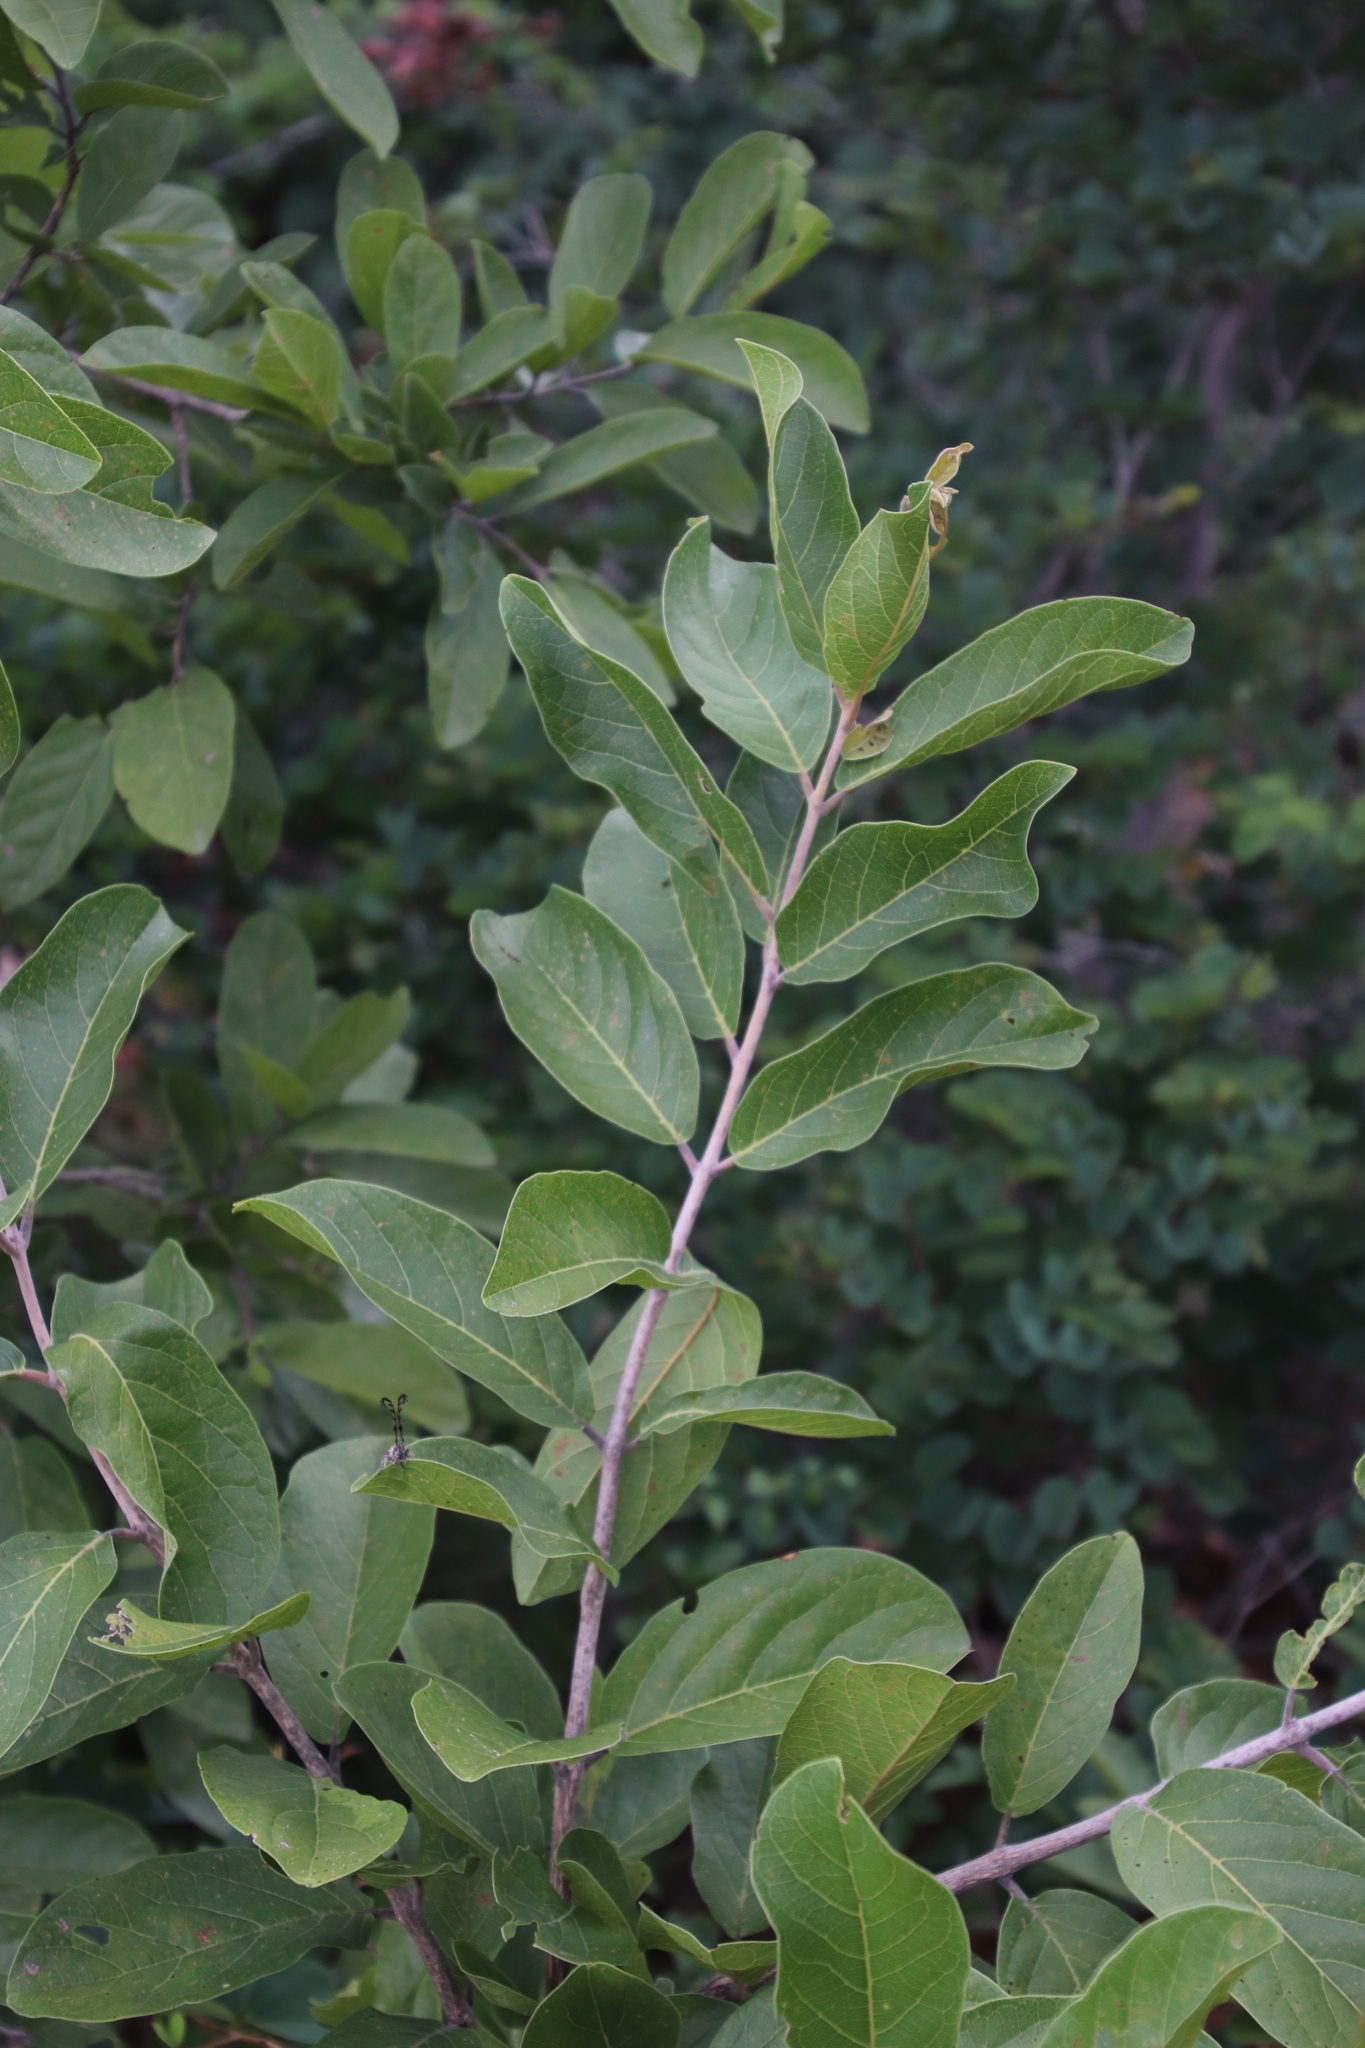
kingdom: Plantae
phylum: Tracheophyta
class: Magnoliopsida
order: Myrtales
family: Combretaceae
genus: Combretum
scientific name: Combretum zeyheri
